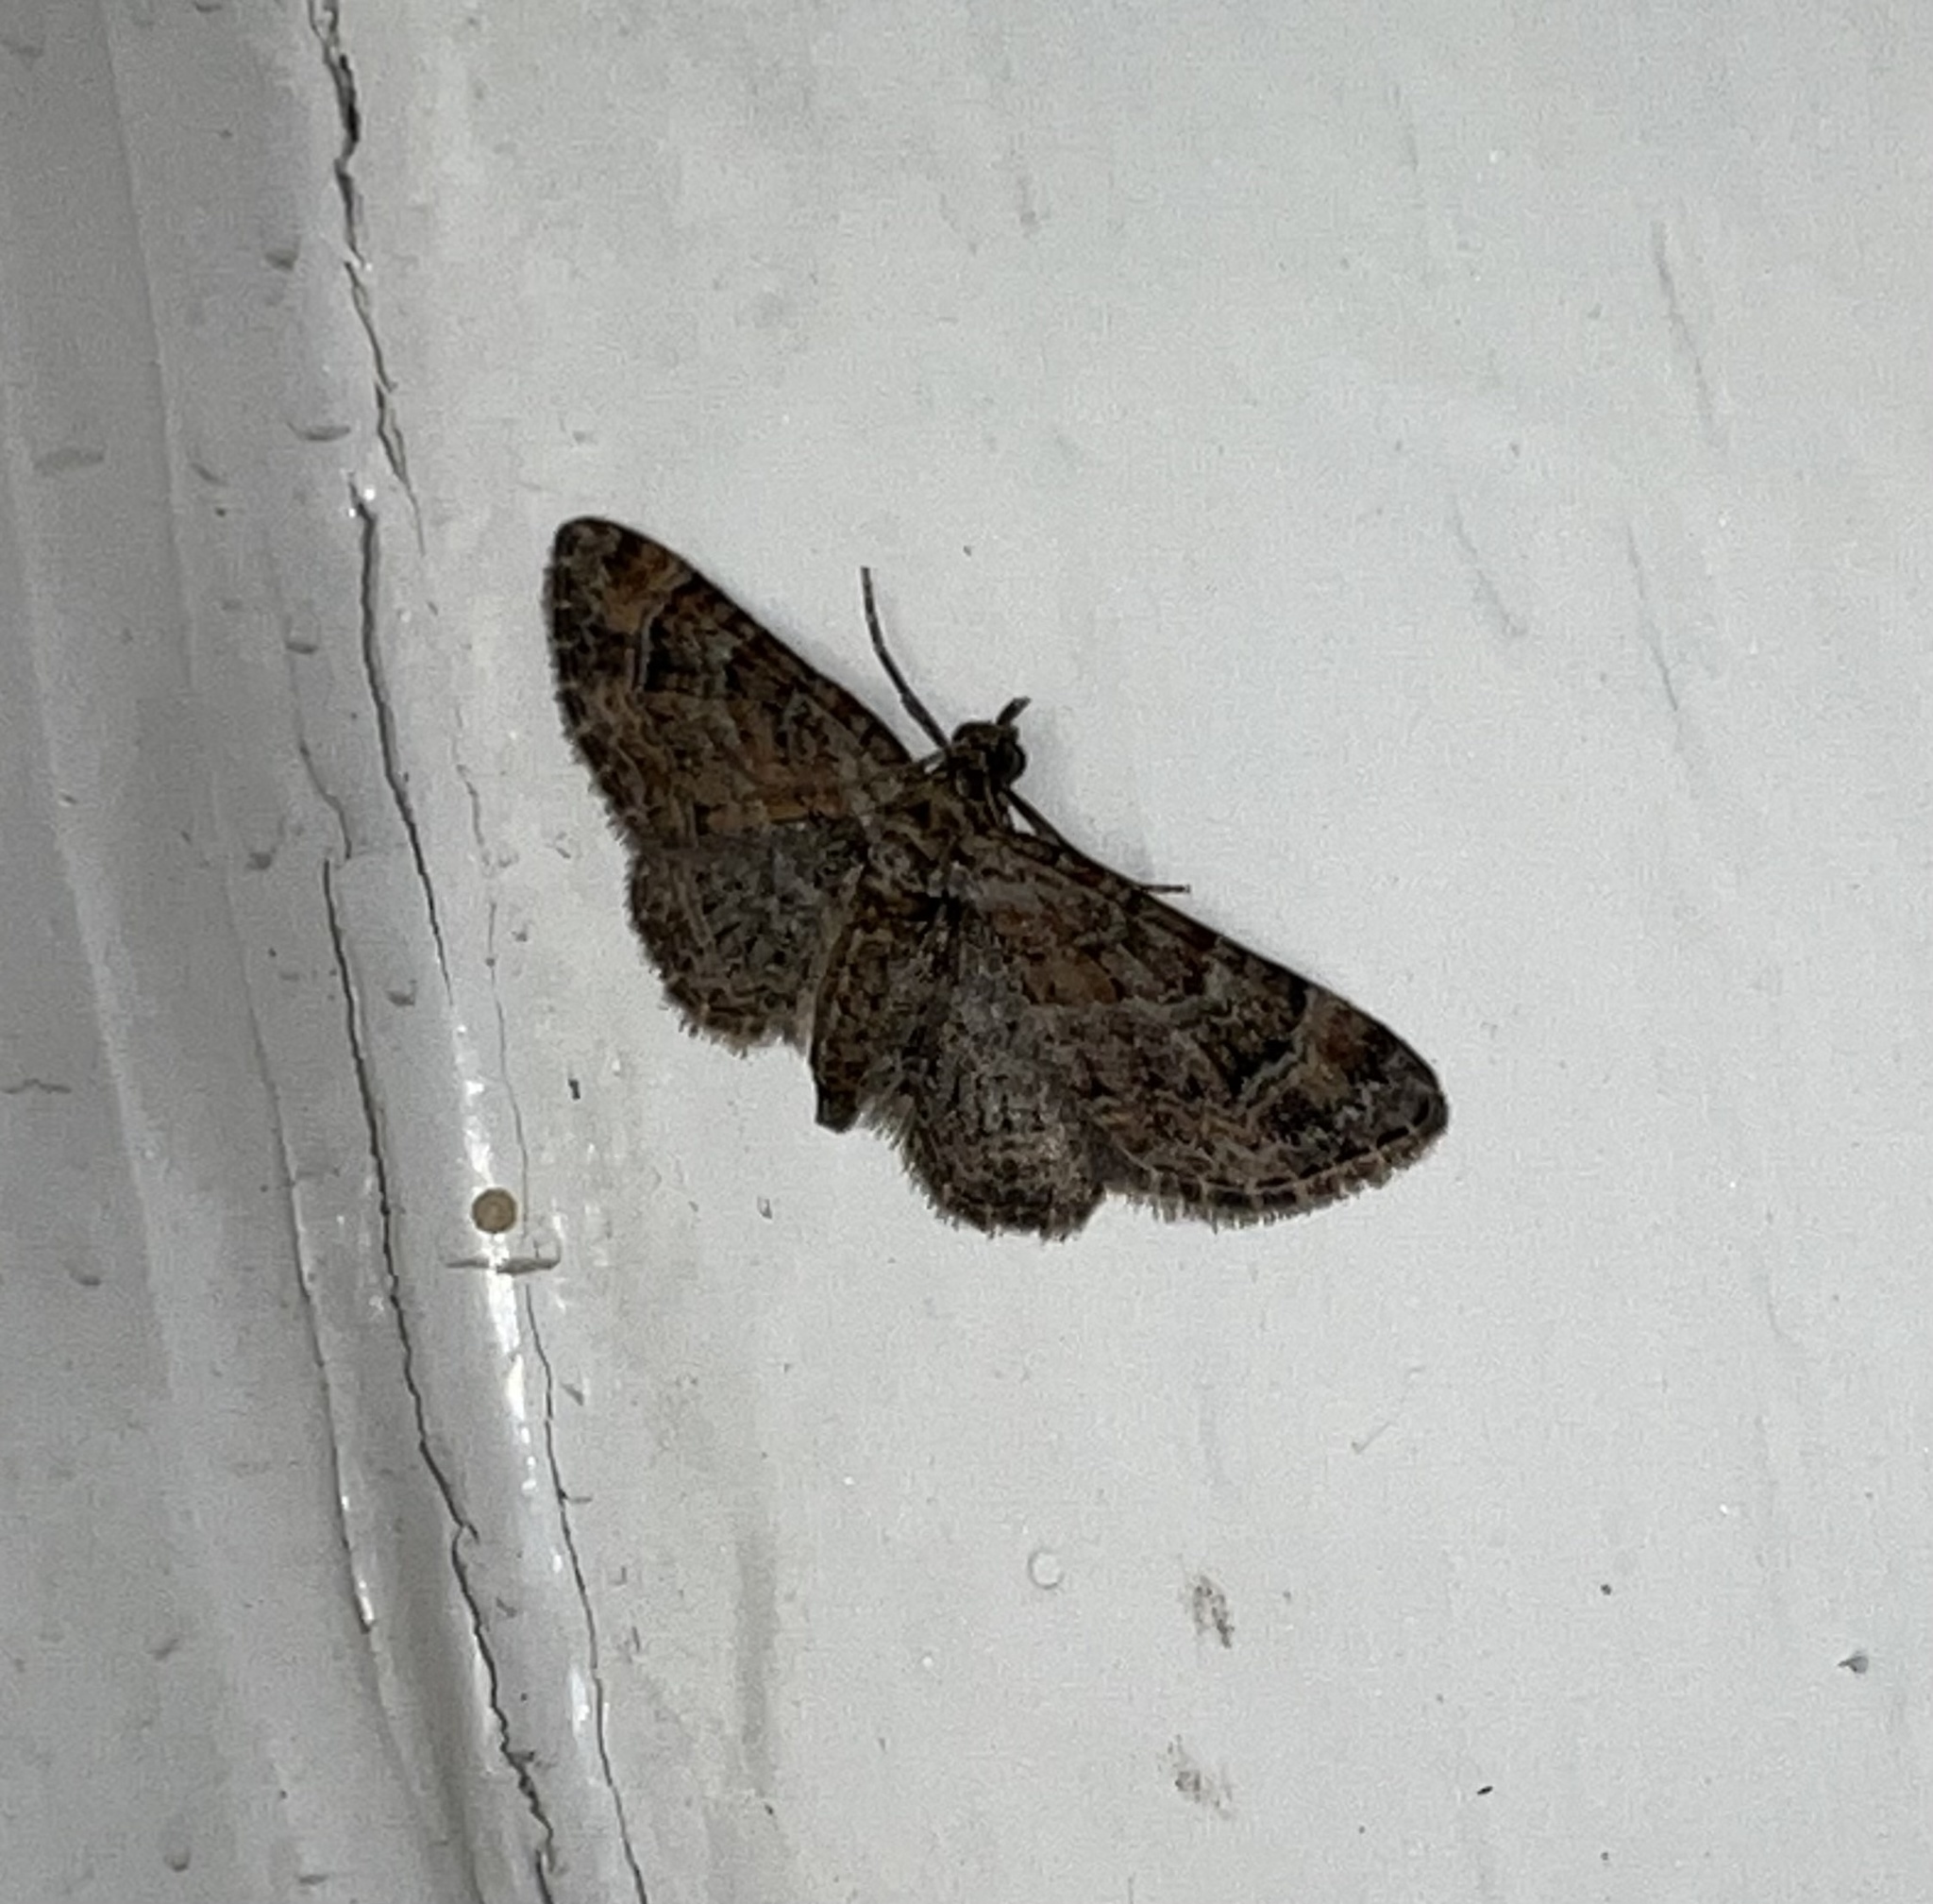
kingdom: Animalia
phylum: Arthropoda
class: Insecta
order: Lepidoptera
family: Geometridae
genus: Gymnoscelis
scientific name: Gymnoscelis rufifasciata
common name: Double-striped pug
